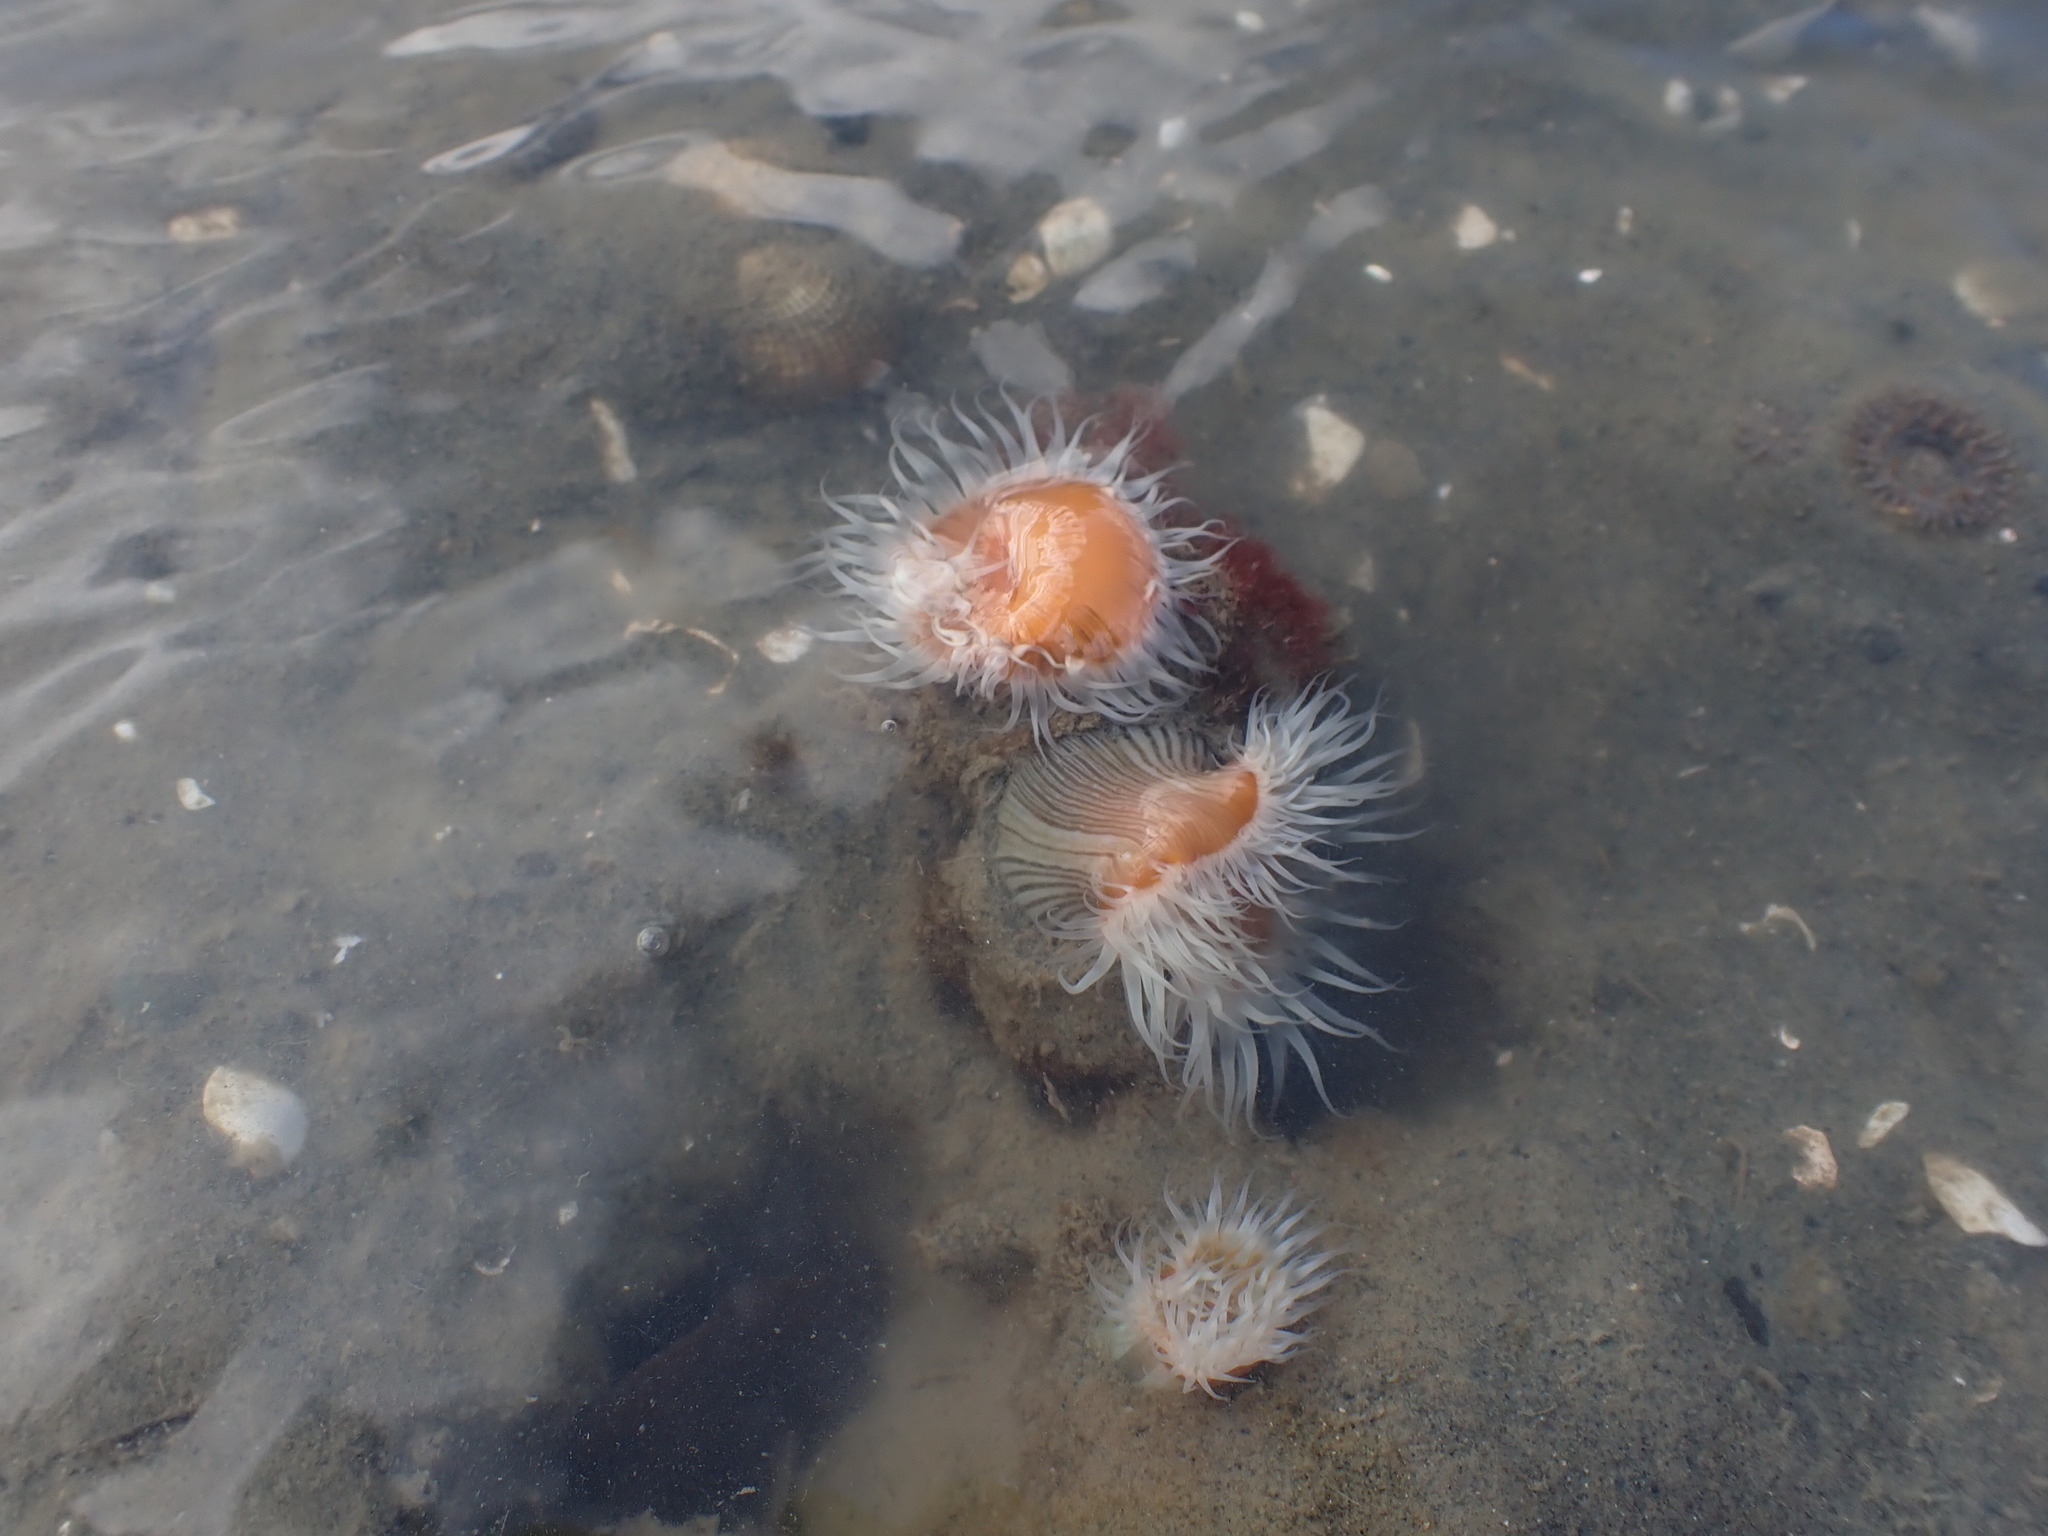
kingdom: Animalia
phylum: Cnidaria
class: Anthozoa
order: Actiniaria
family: Sagartiidae
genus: Anthothoe
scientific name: Anthothoe albocincta
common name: Orange striped anemone
